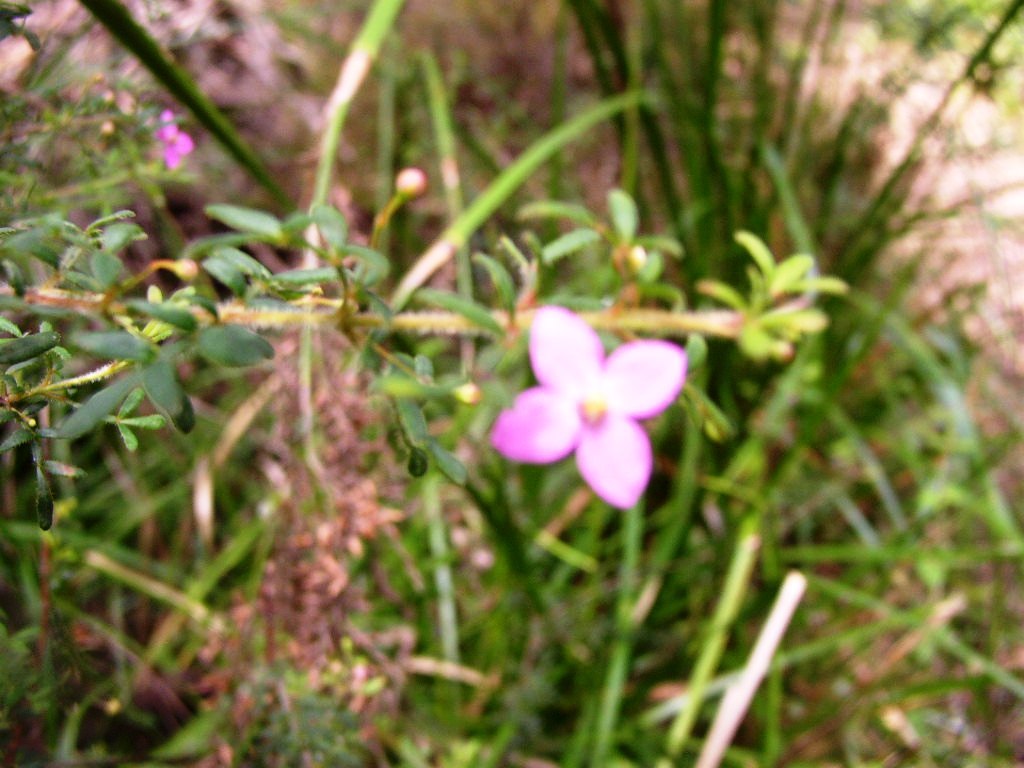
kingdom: Plantae
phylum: Tracheophyta
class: Magnoliopsida
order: Sapindales
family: Rutaceae
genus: Boronia
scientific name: Boronia gracilipes
